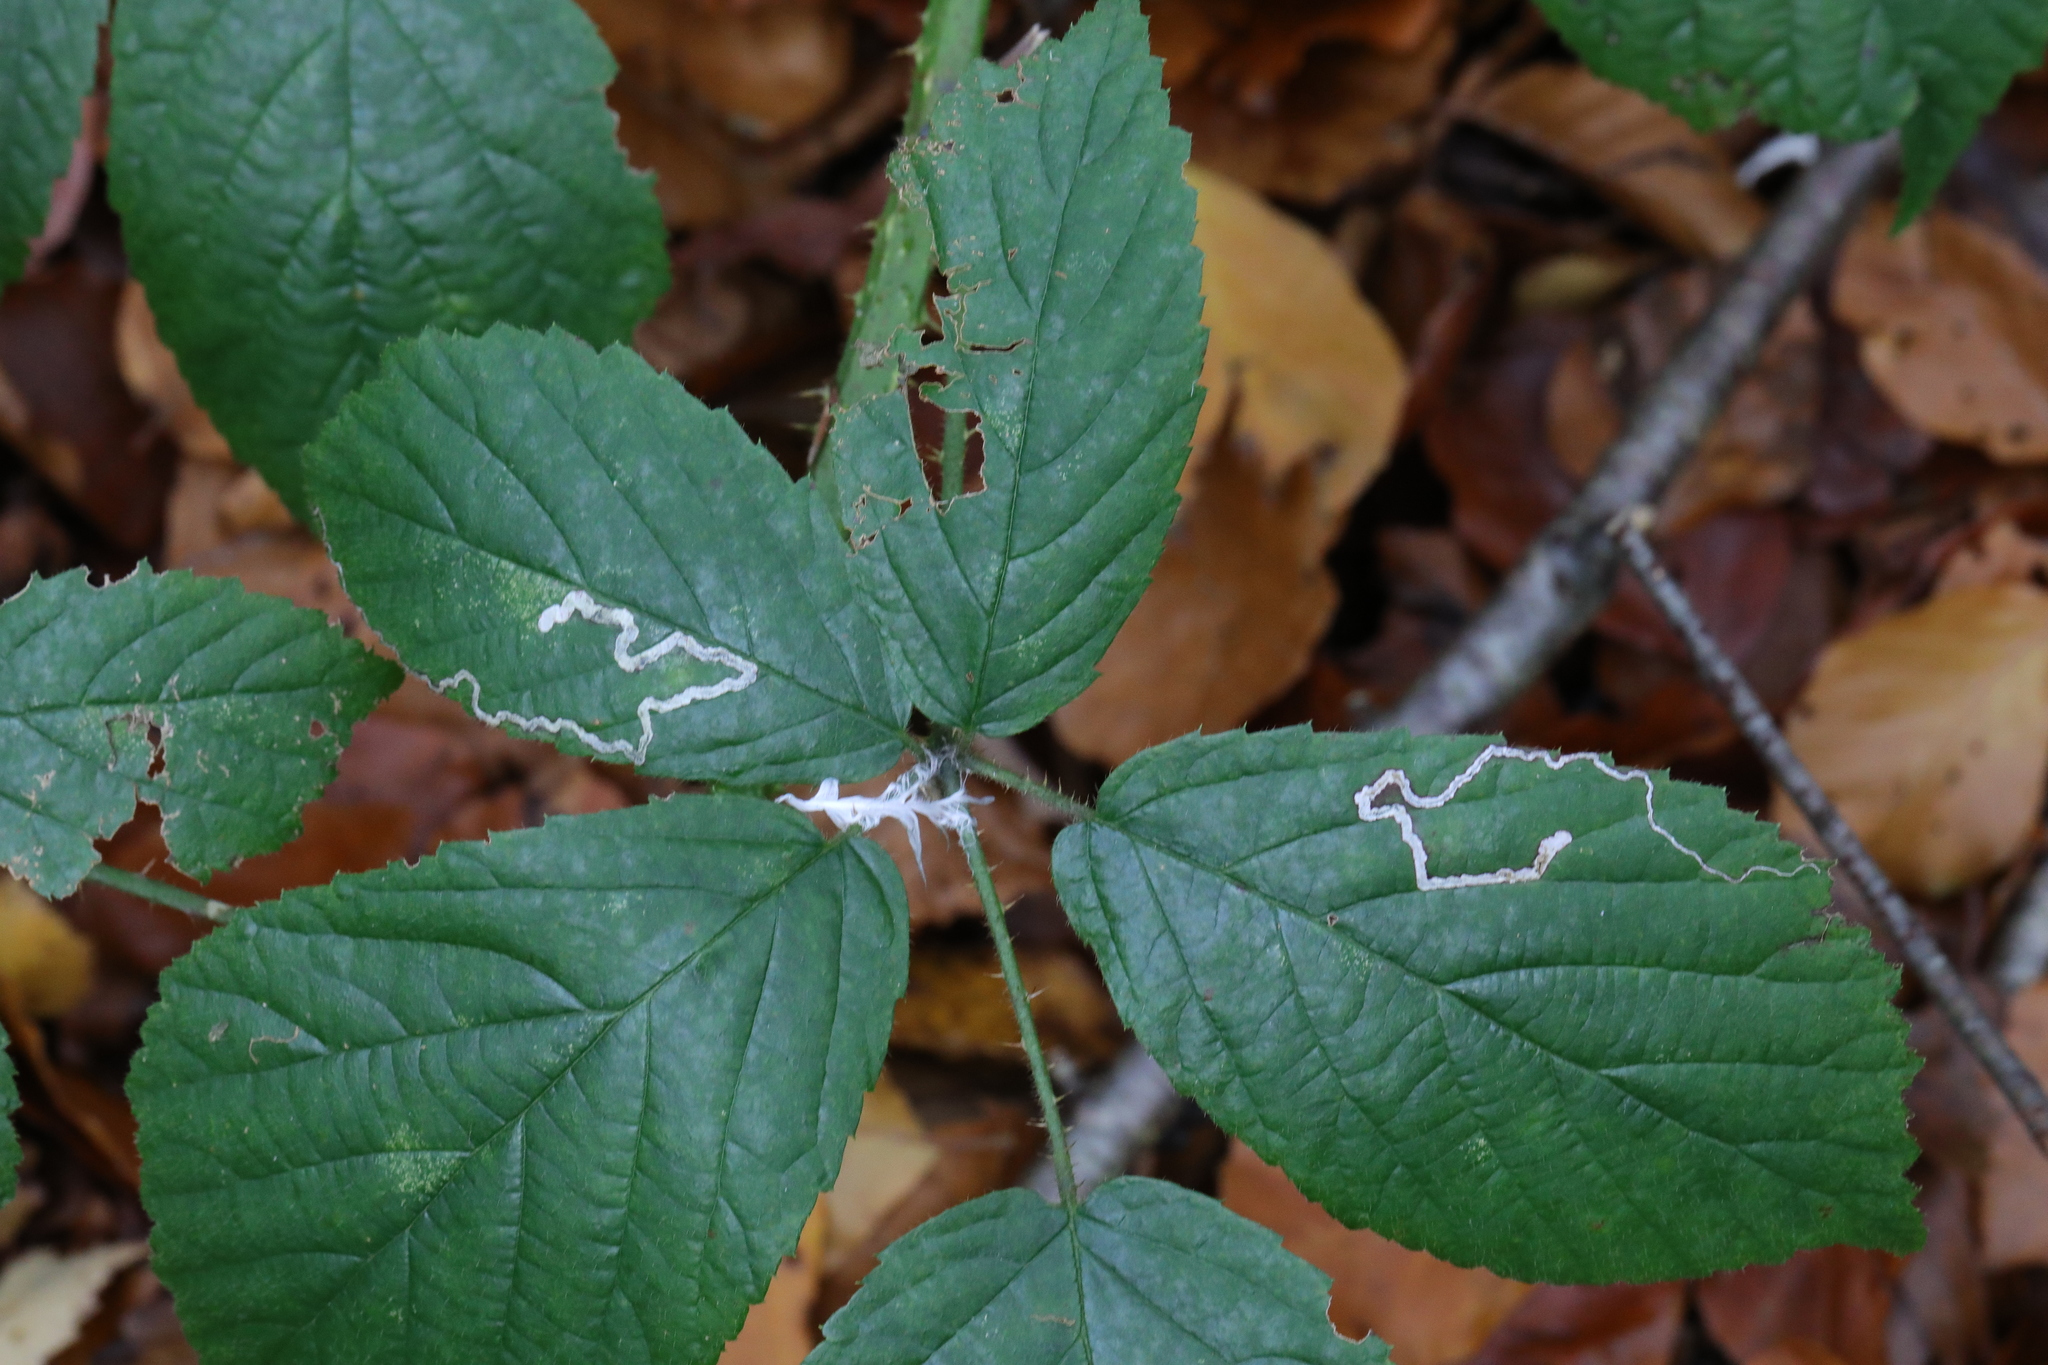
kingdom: Animalia
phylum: Arthropoda
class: Insecta
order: Lepidoptera
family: Nepticulidae
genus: Stigmella
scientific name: Stigmella aurella
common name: Golden pigmy
